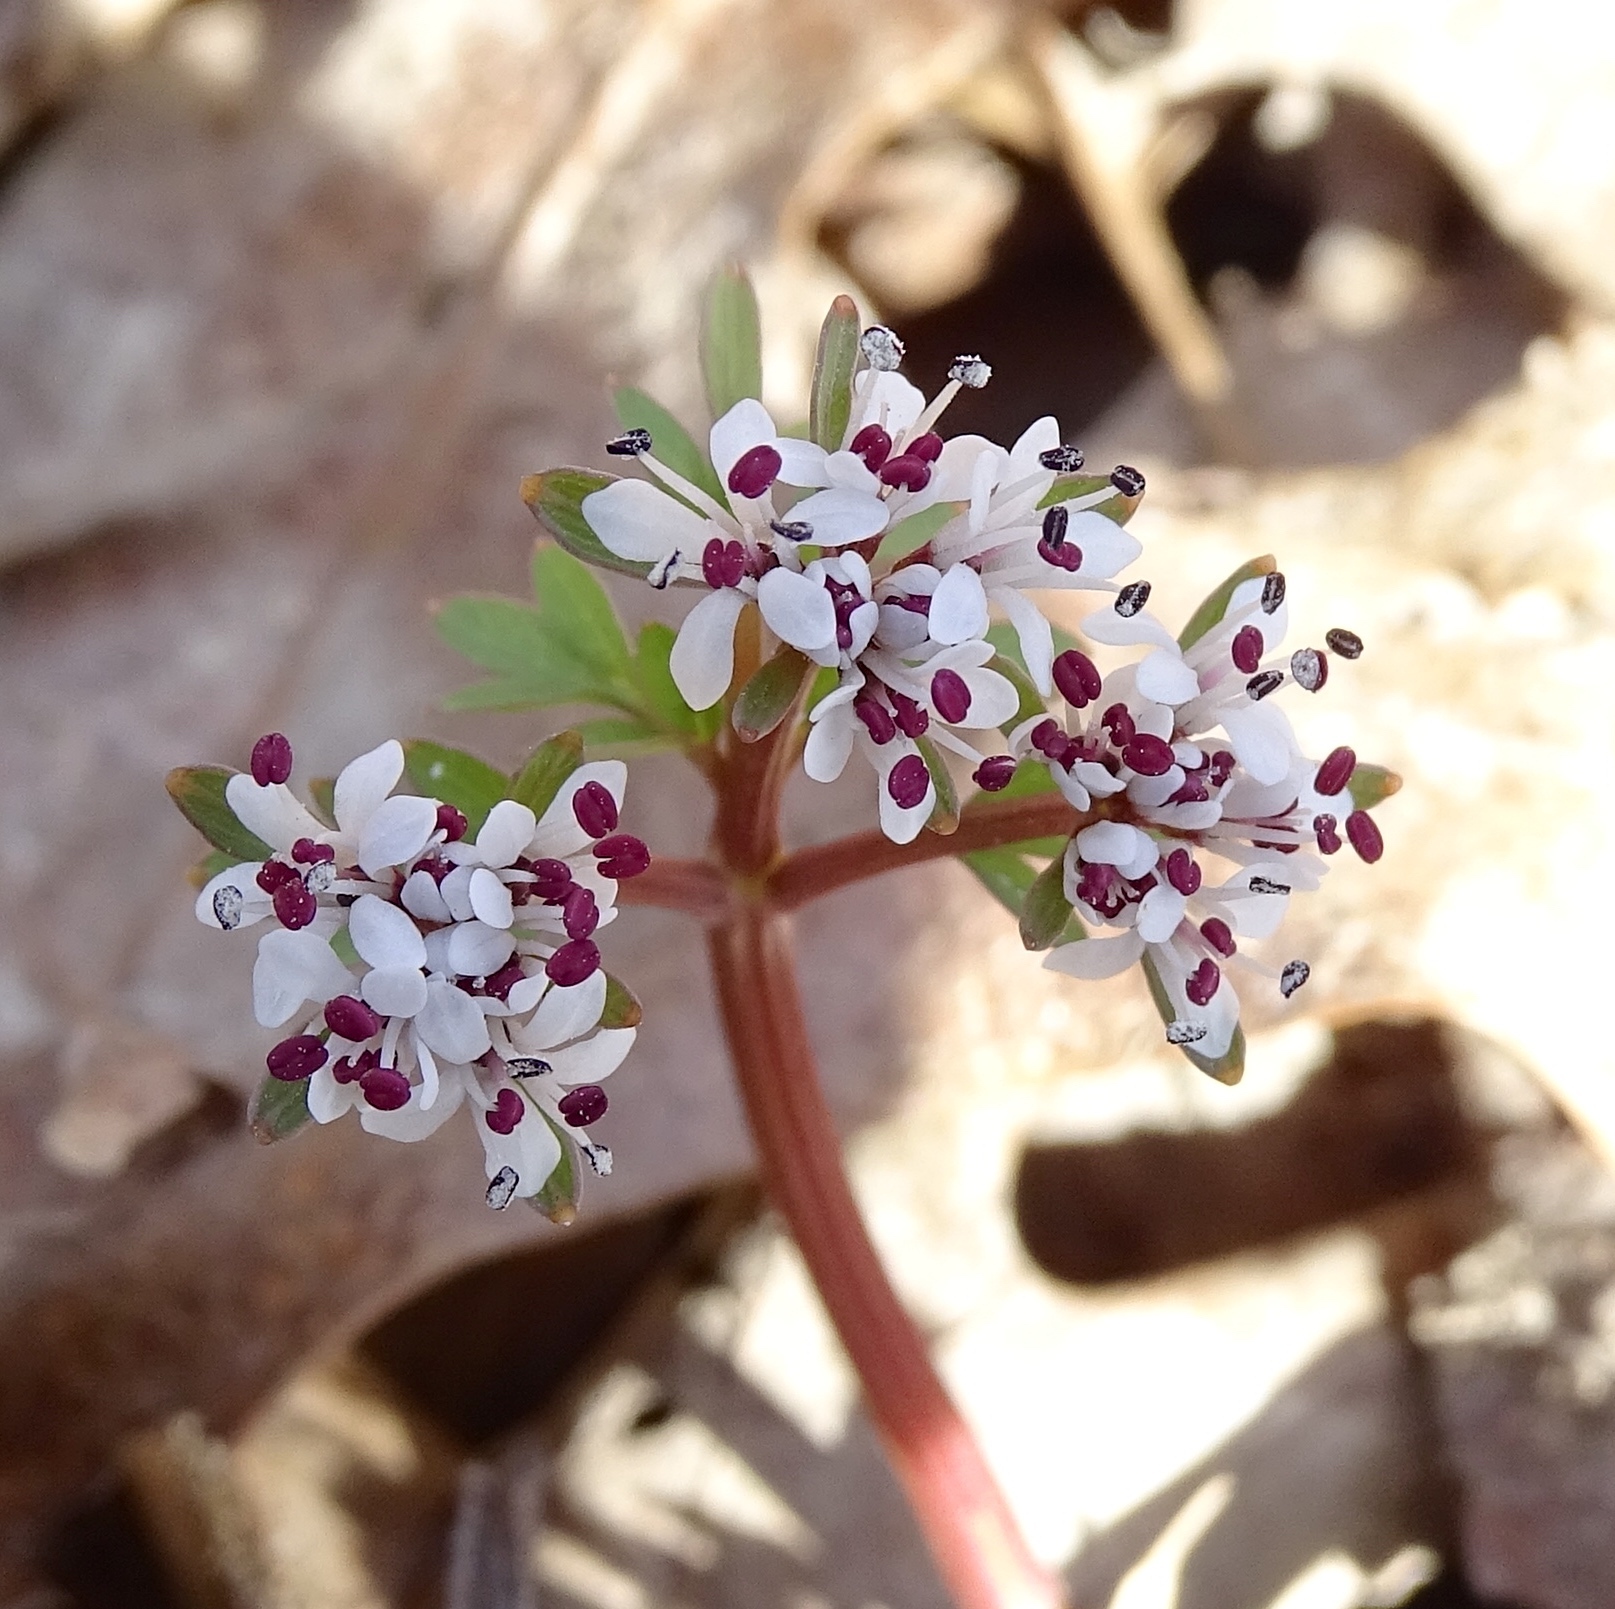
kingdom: Plantae
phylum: Tracheophyta
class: Magnoliopsida
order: Apiales
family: Apiaceae
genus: Erigenia
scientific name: Erigenia bulbosa
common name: Pepper-and-salt
